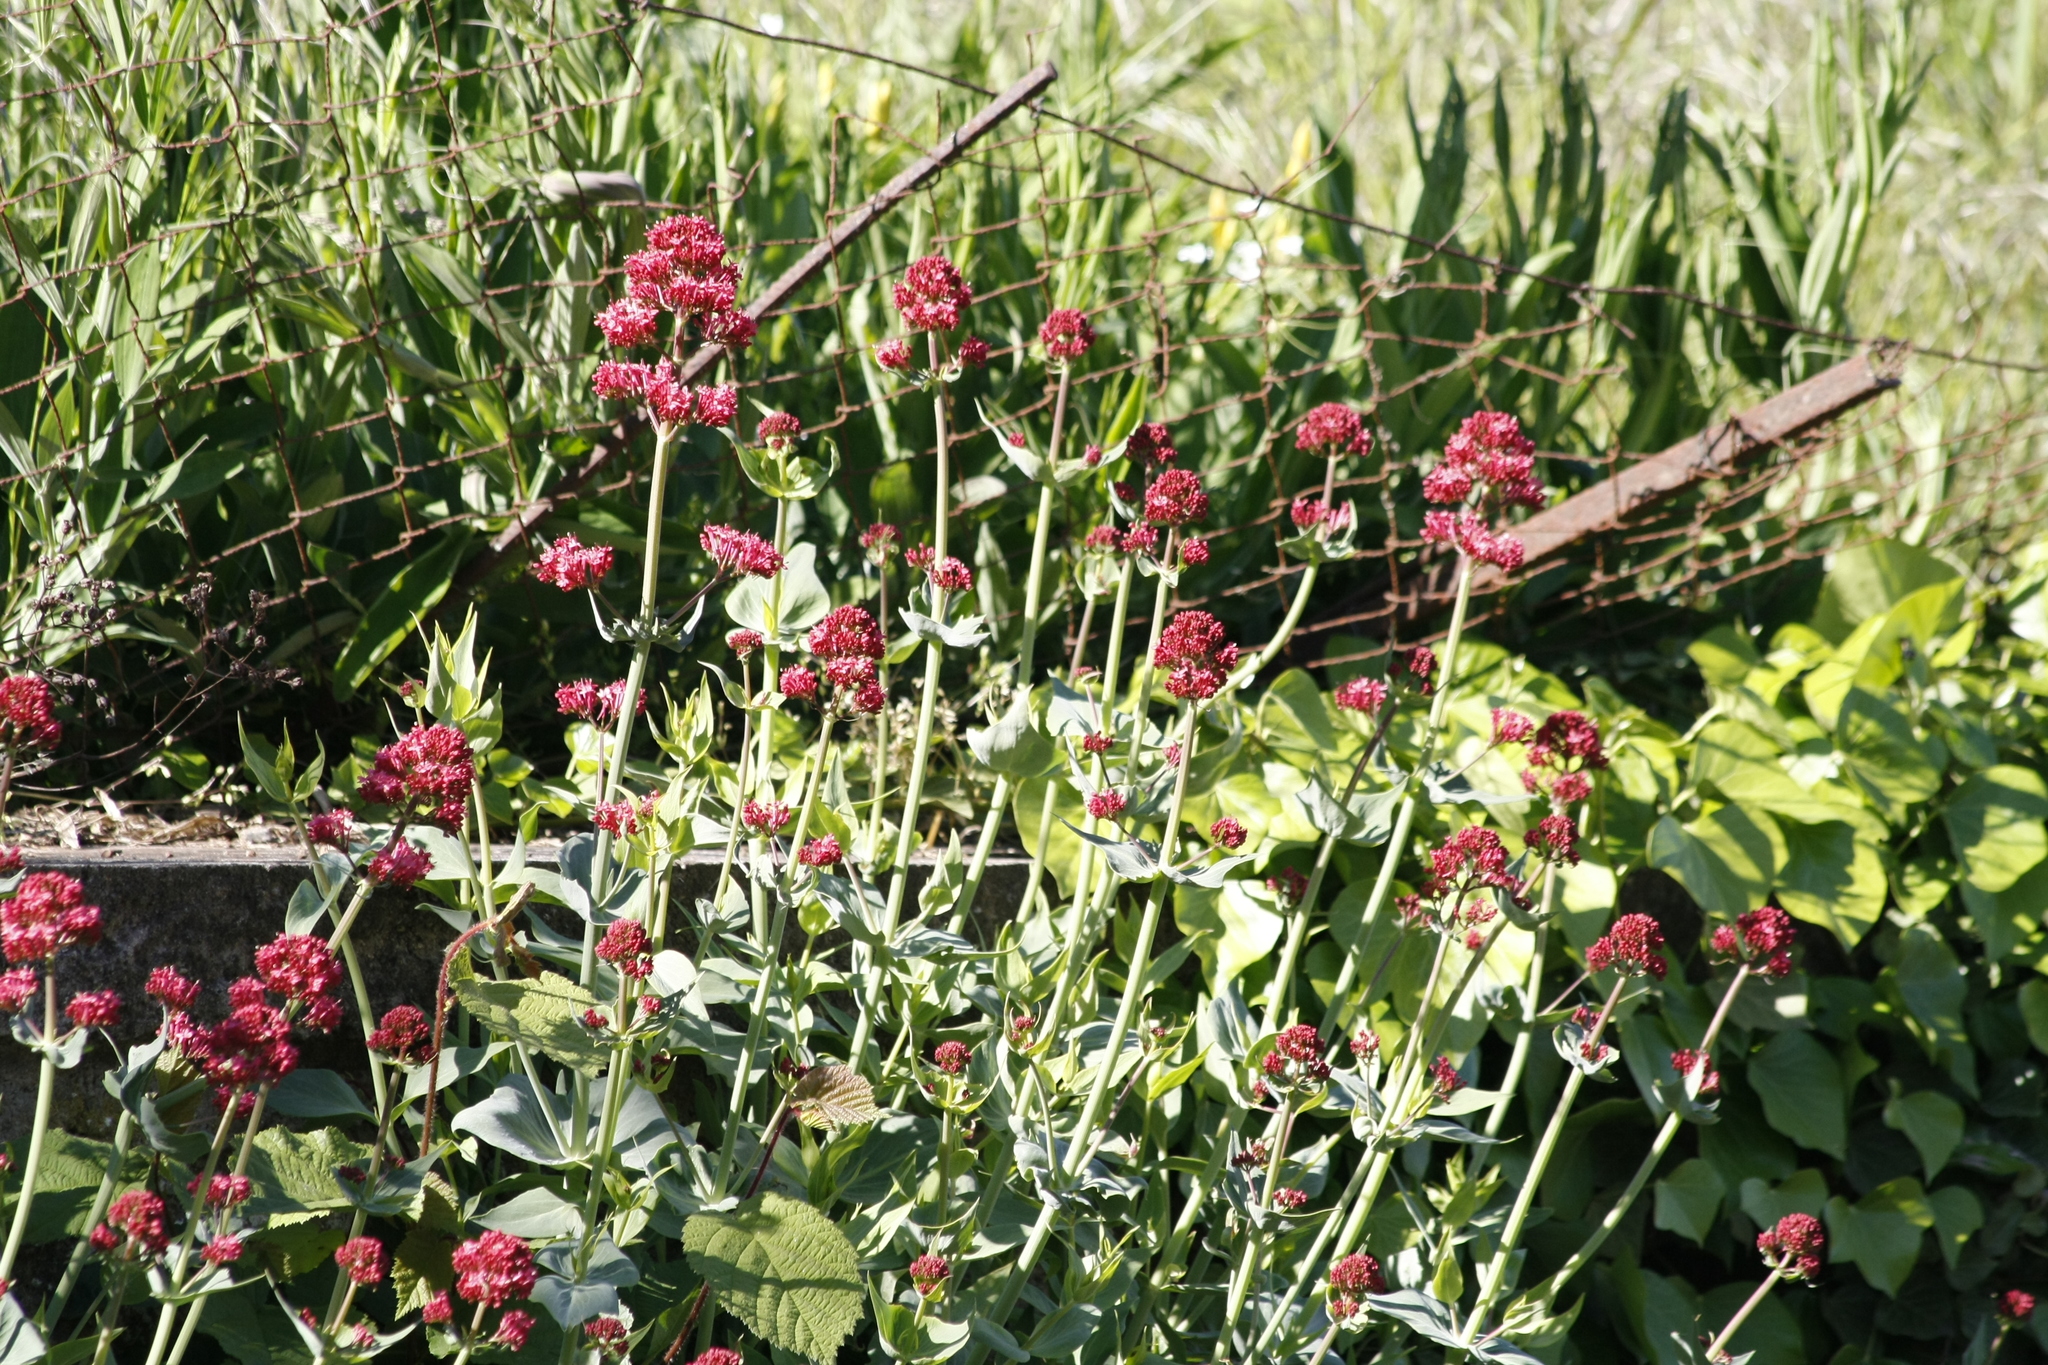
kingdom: Plantae
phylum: Tracheophyta
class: Magnoliopsida
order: Dipsacales
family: Caprifoliaceae
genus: Centranthus
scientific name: Centranthus ruber
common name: Red valerian
